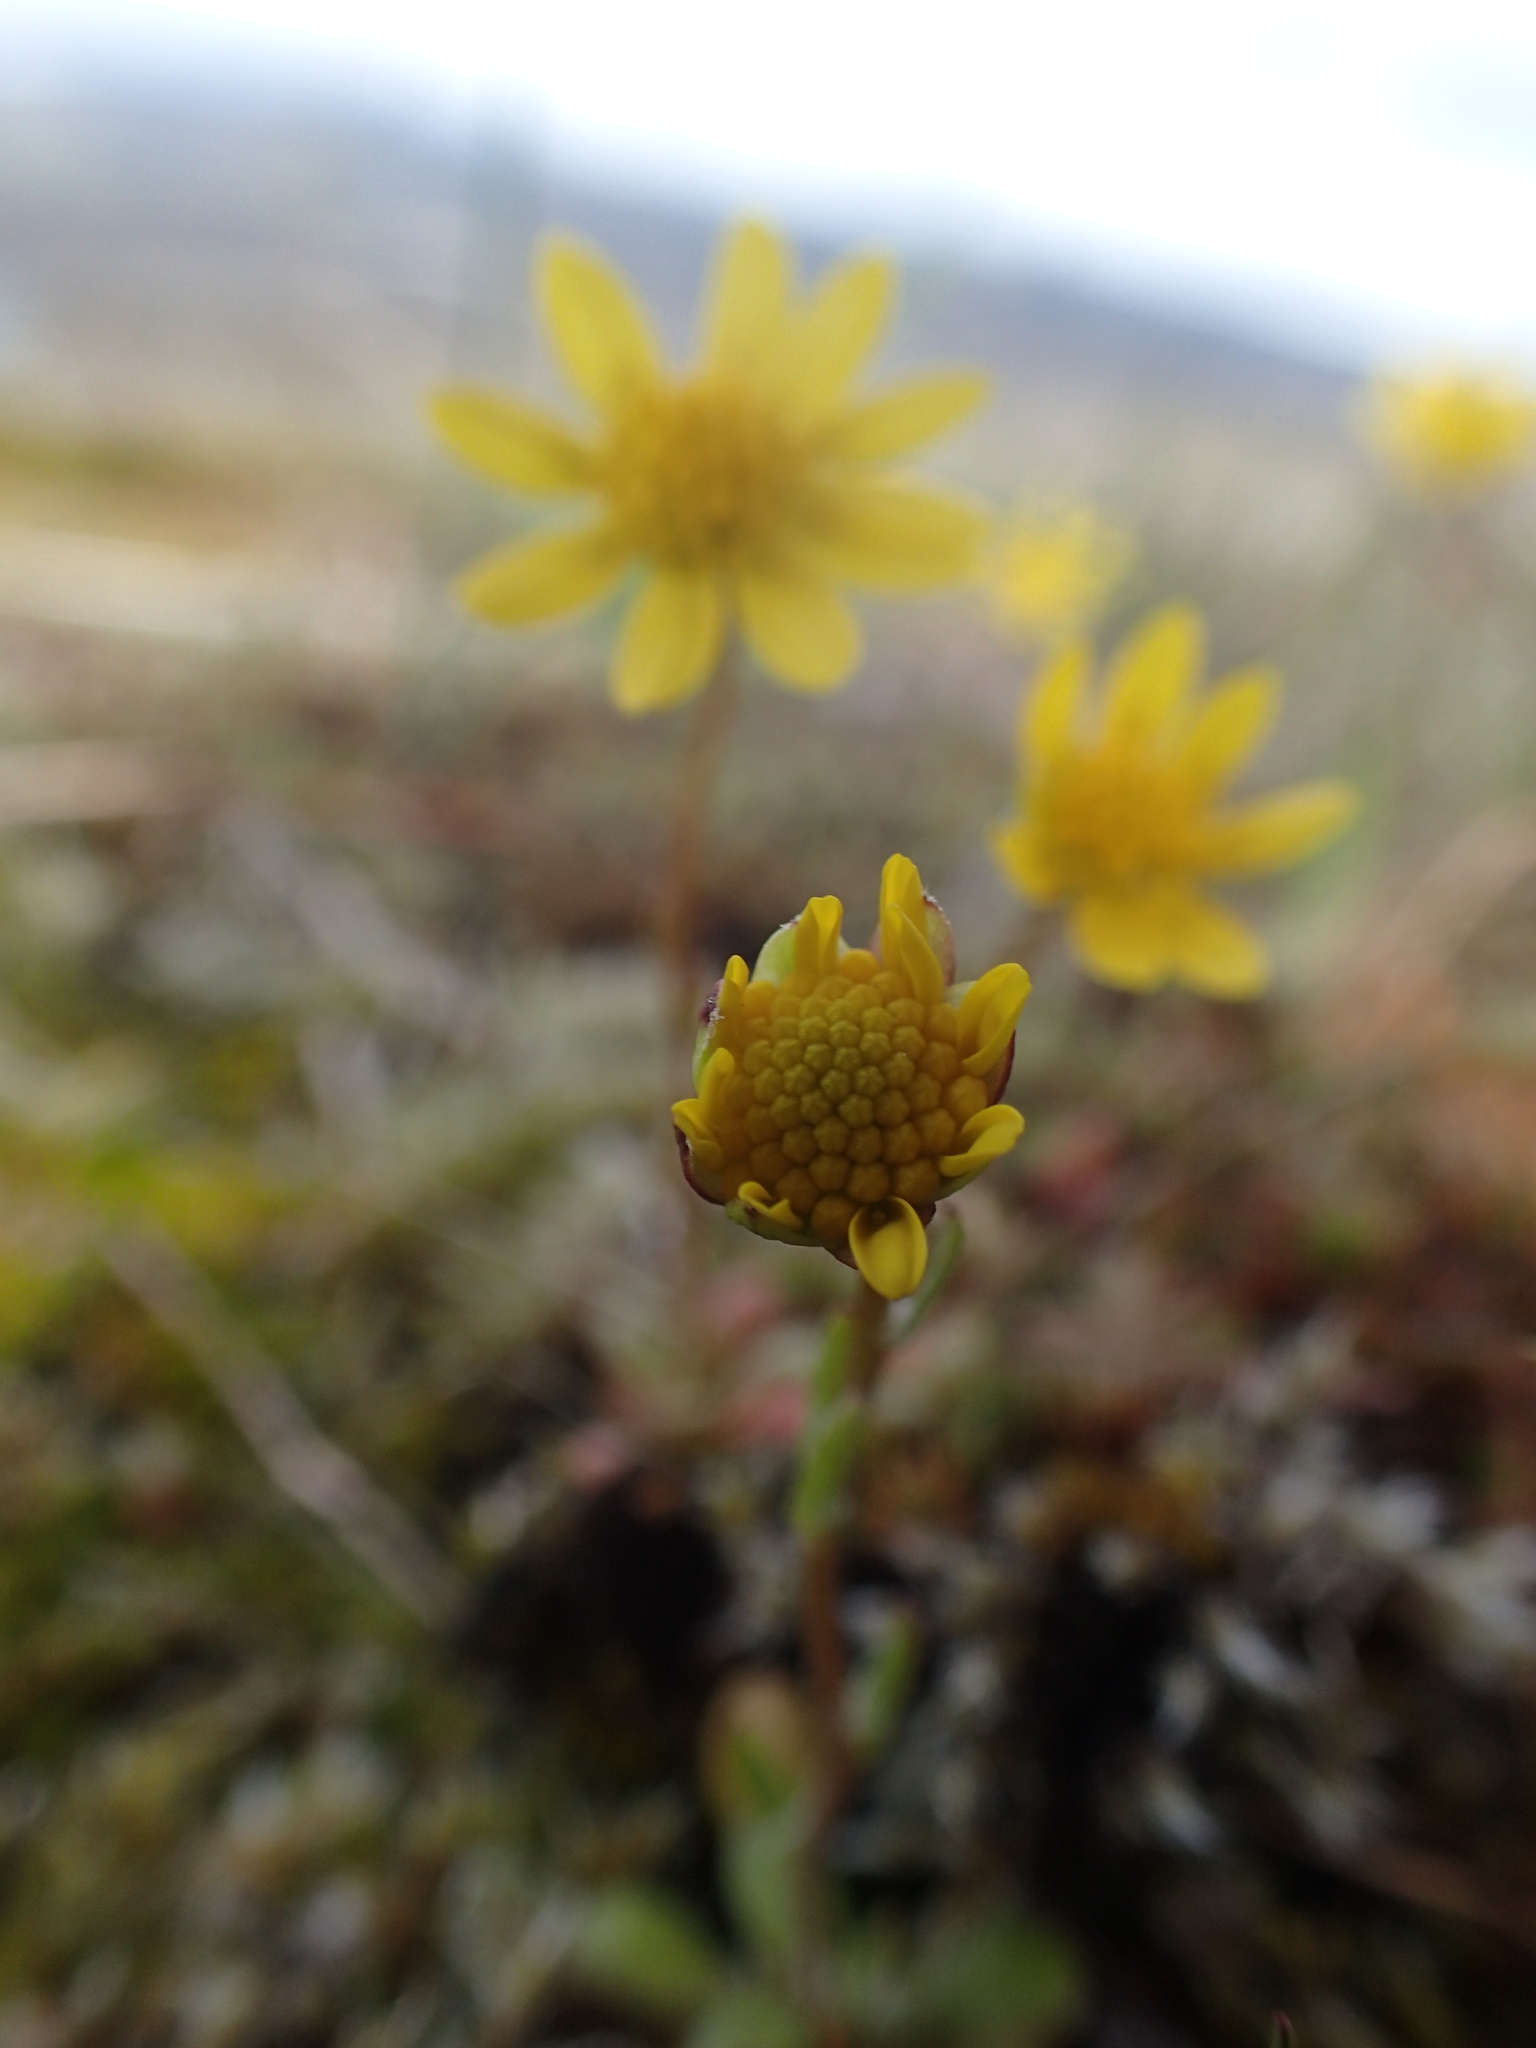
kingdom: Plantae
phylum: Tracheophyta
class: Magnoliopsida
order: Asterales
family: Asteraceae
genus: Crocidium
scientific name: Crocidium multicaule
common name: Common spring gold
